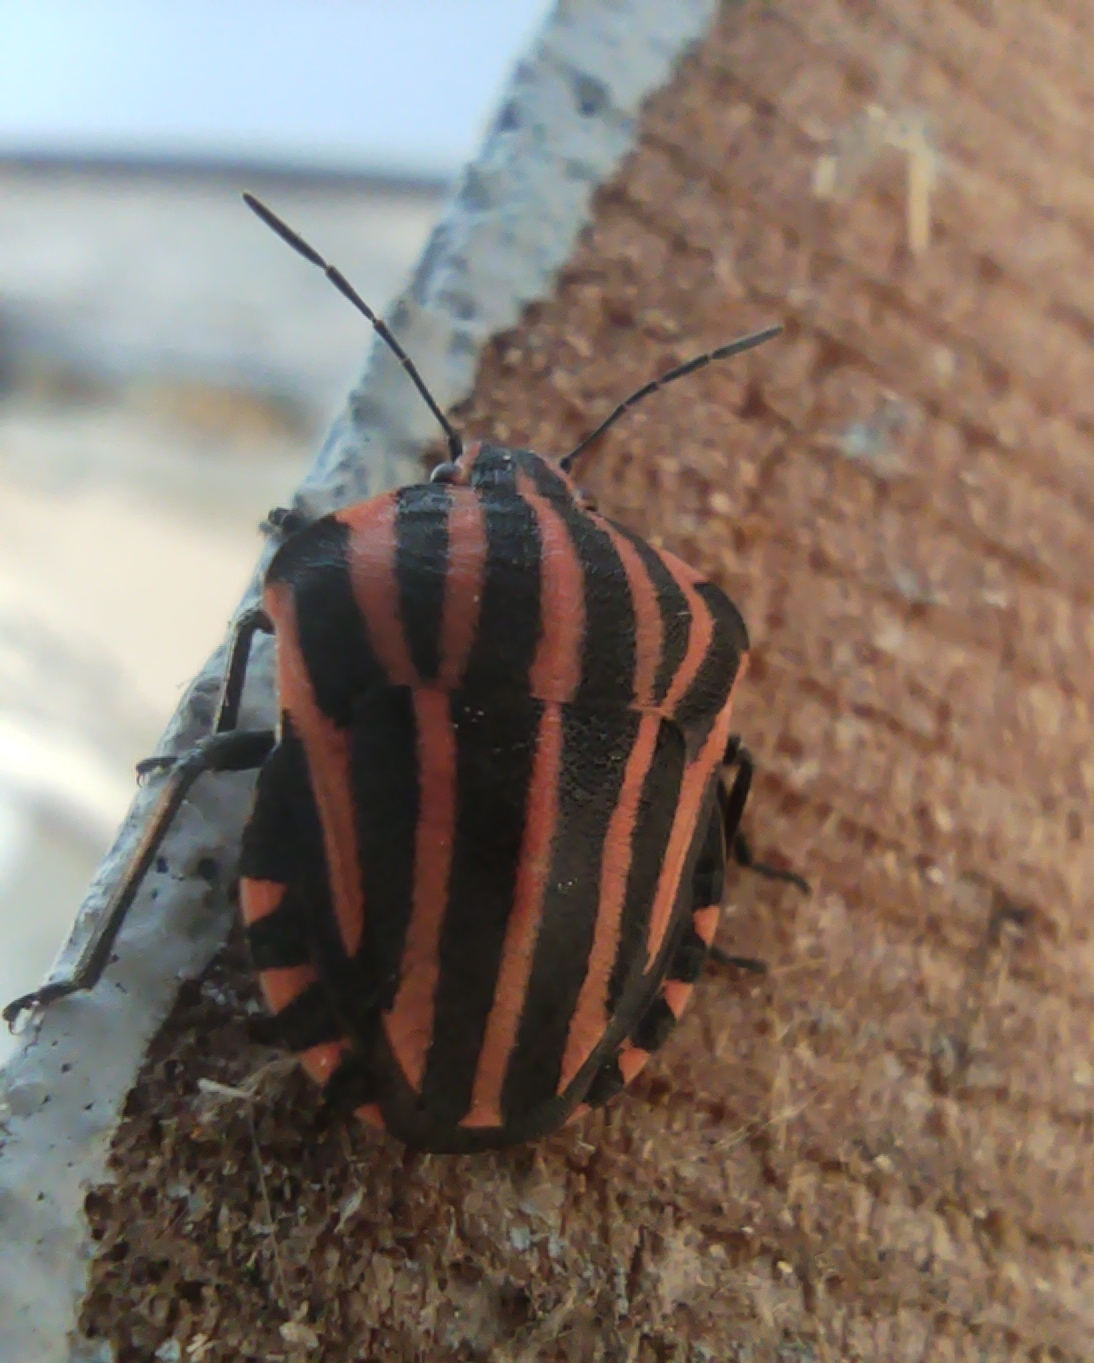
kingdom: Animalia
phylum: Arthropoda
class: Insecta
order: Hemiptera
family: Pentatomidae
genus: Graphosoma
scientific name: Graphosoma italicum
